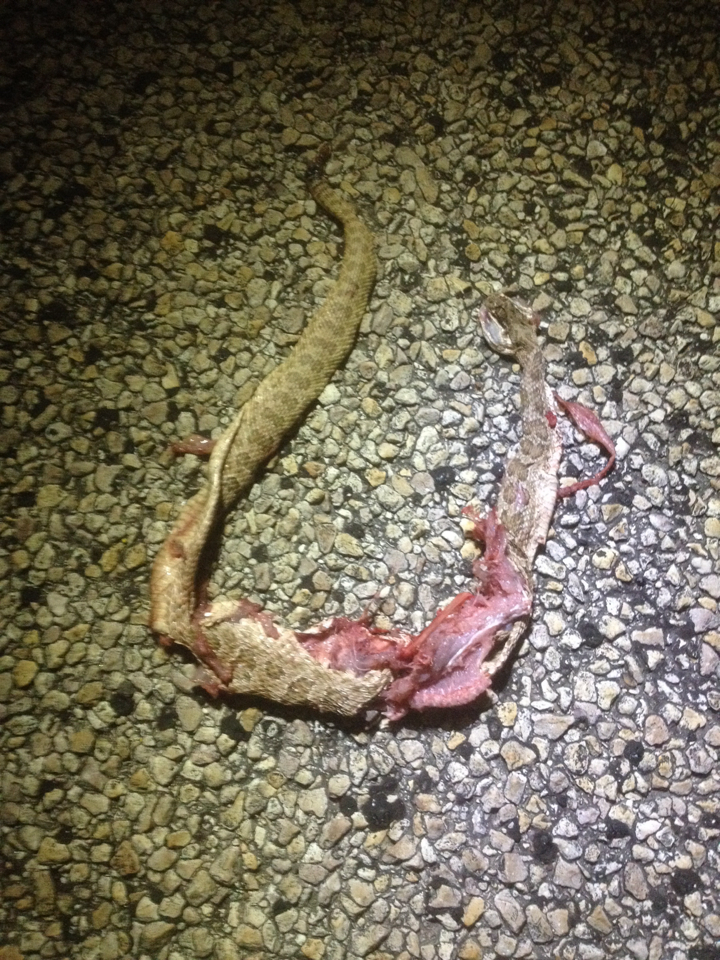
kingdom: Animalia
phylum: Chordata
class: Squamata
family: Viperidae
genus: Crotalus
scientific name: Crotalus viridis
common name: Prairie rattlesnake
